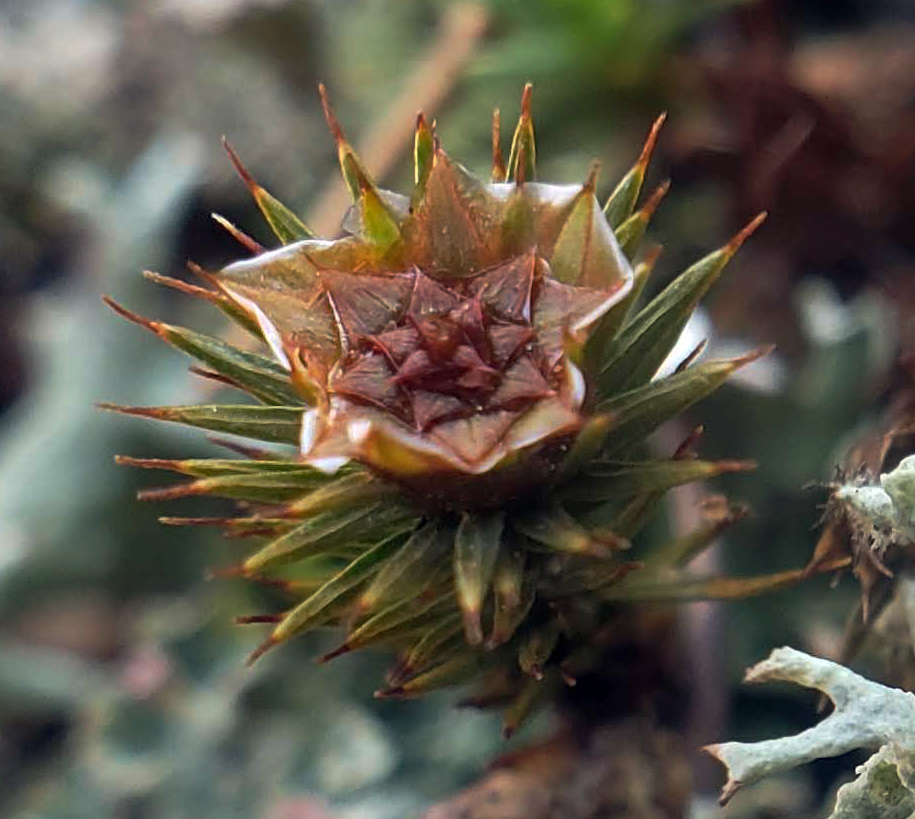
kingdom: Plantae
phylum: Bryophyta
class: Polytrichopsida
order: Polytrichales
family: Polytrichaceae
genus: Polytrichum
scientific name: Polytrichum juniperinum
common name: Juniper haircap moss
